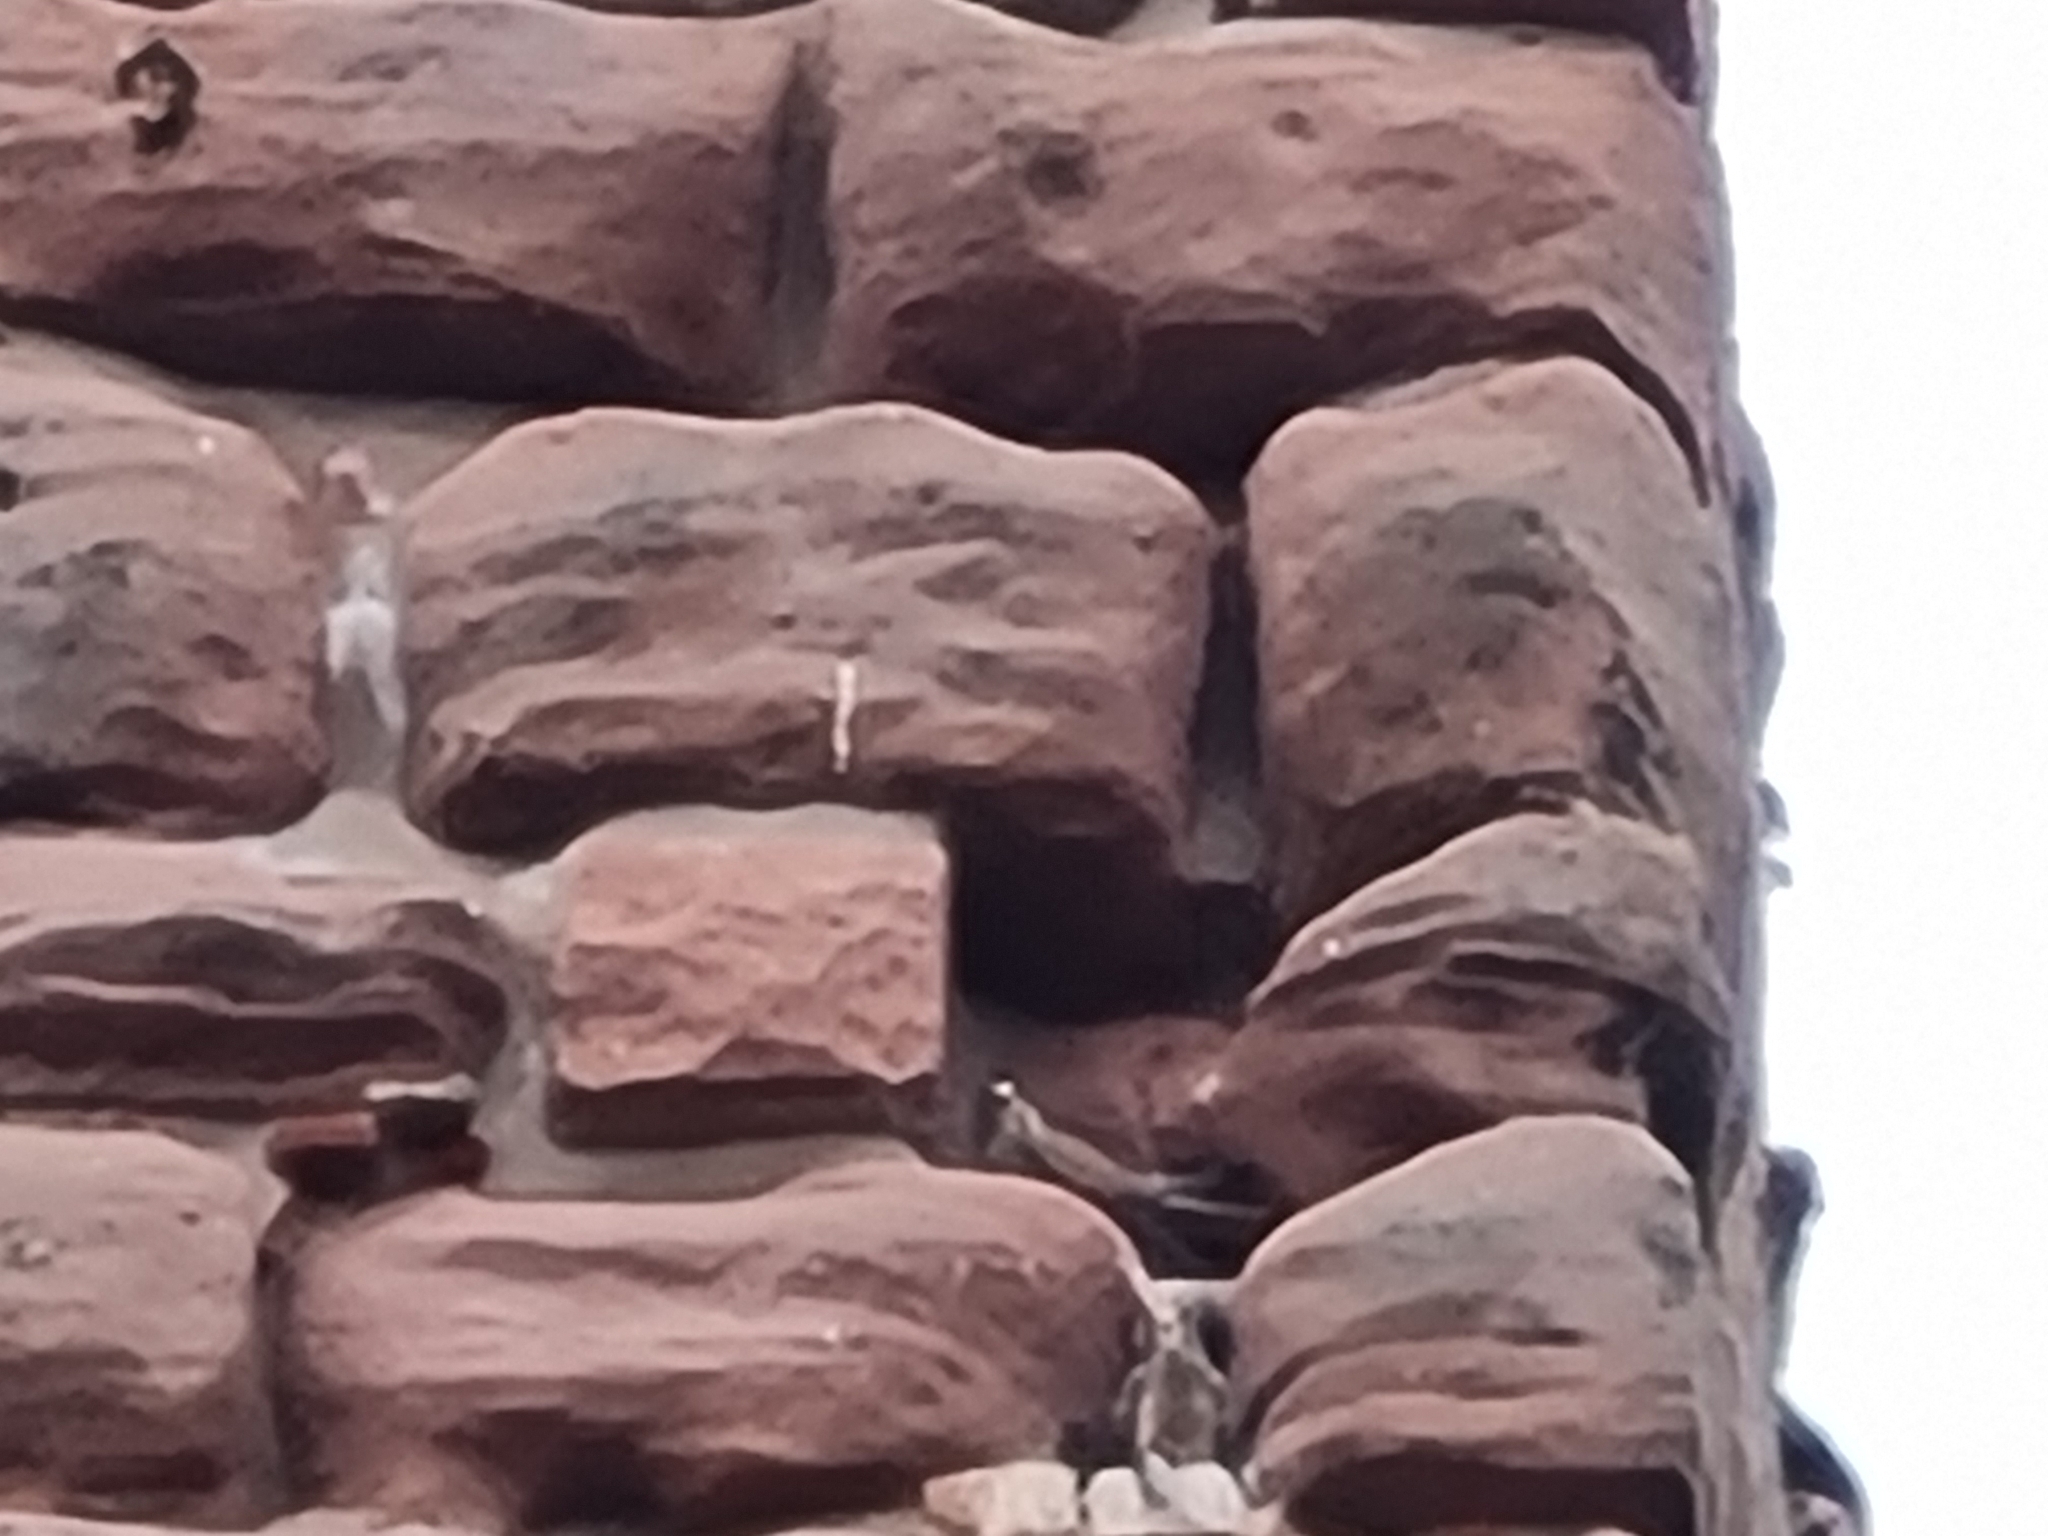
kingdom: Animalia
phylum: Chordata
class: Aves
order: Falconiformes
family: Falconidae
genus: Falco
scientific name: Falco tinnunculus
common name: Common kestrel
